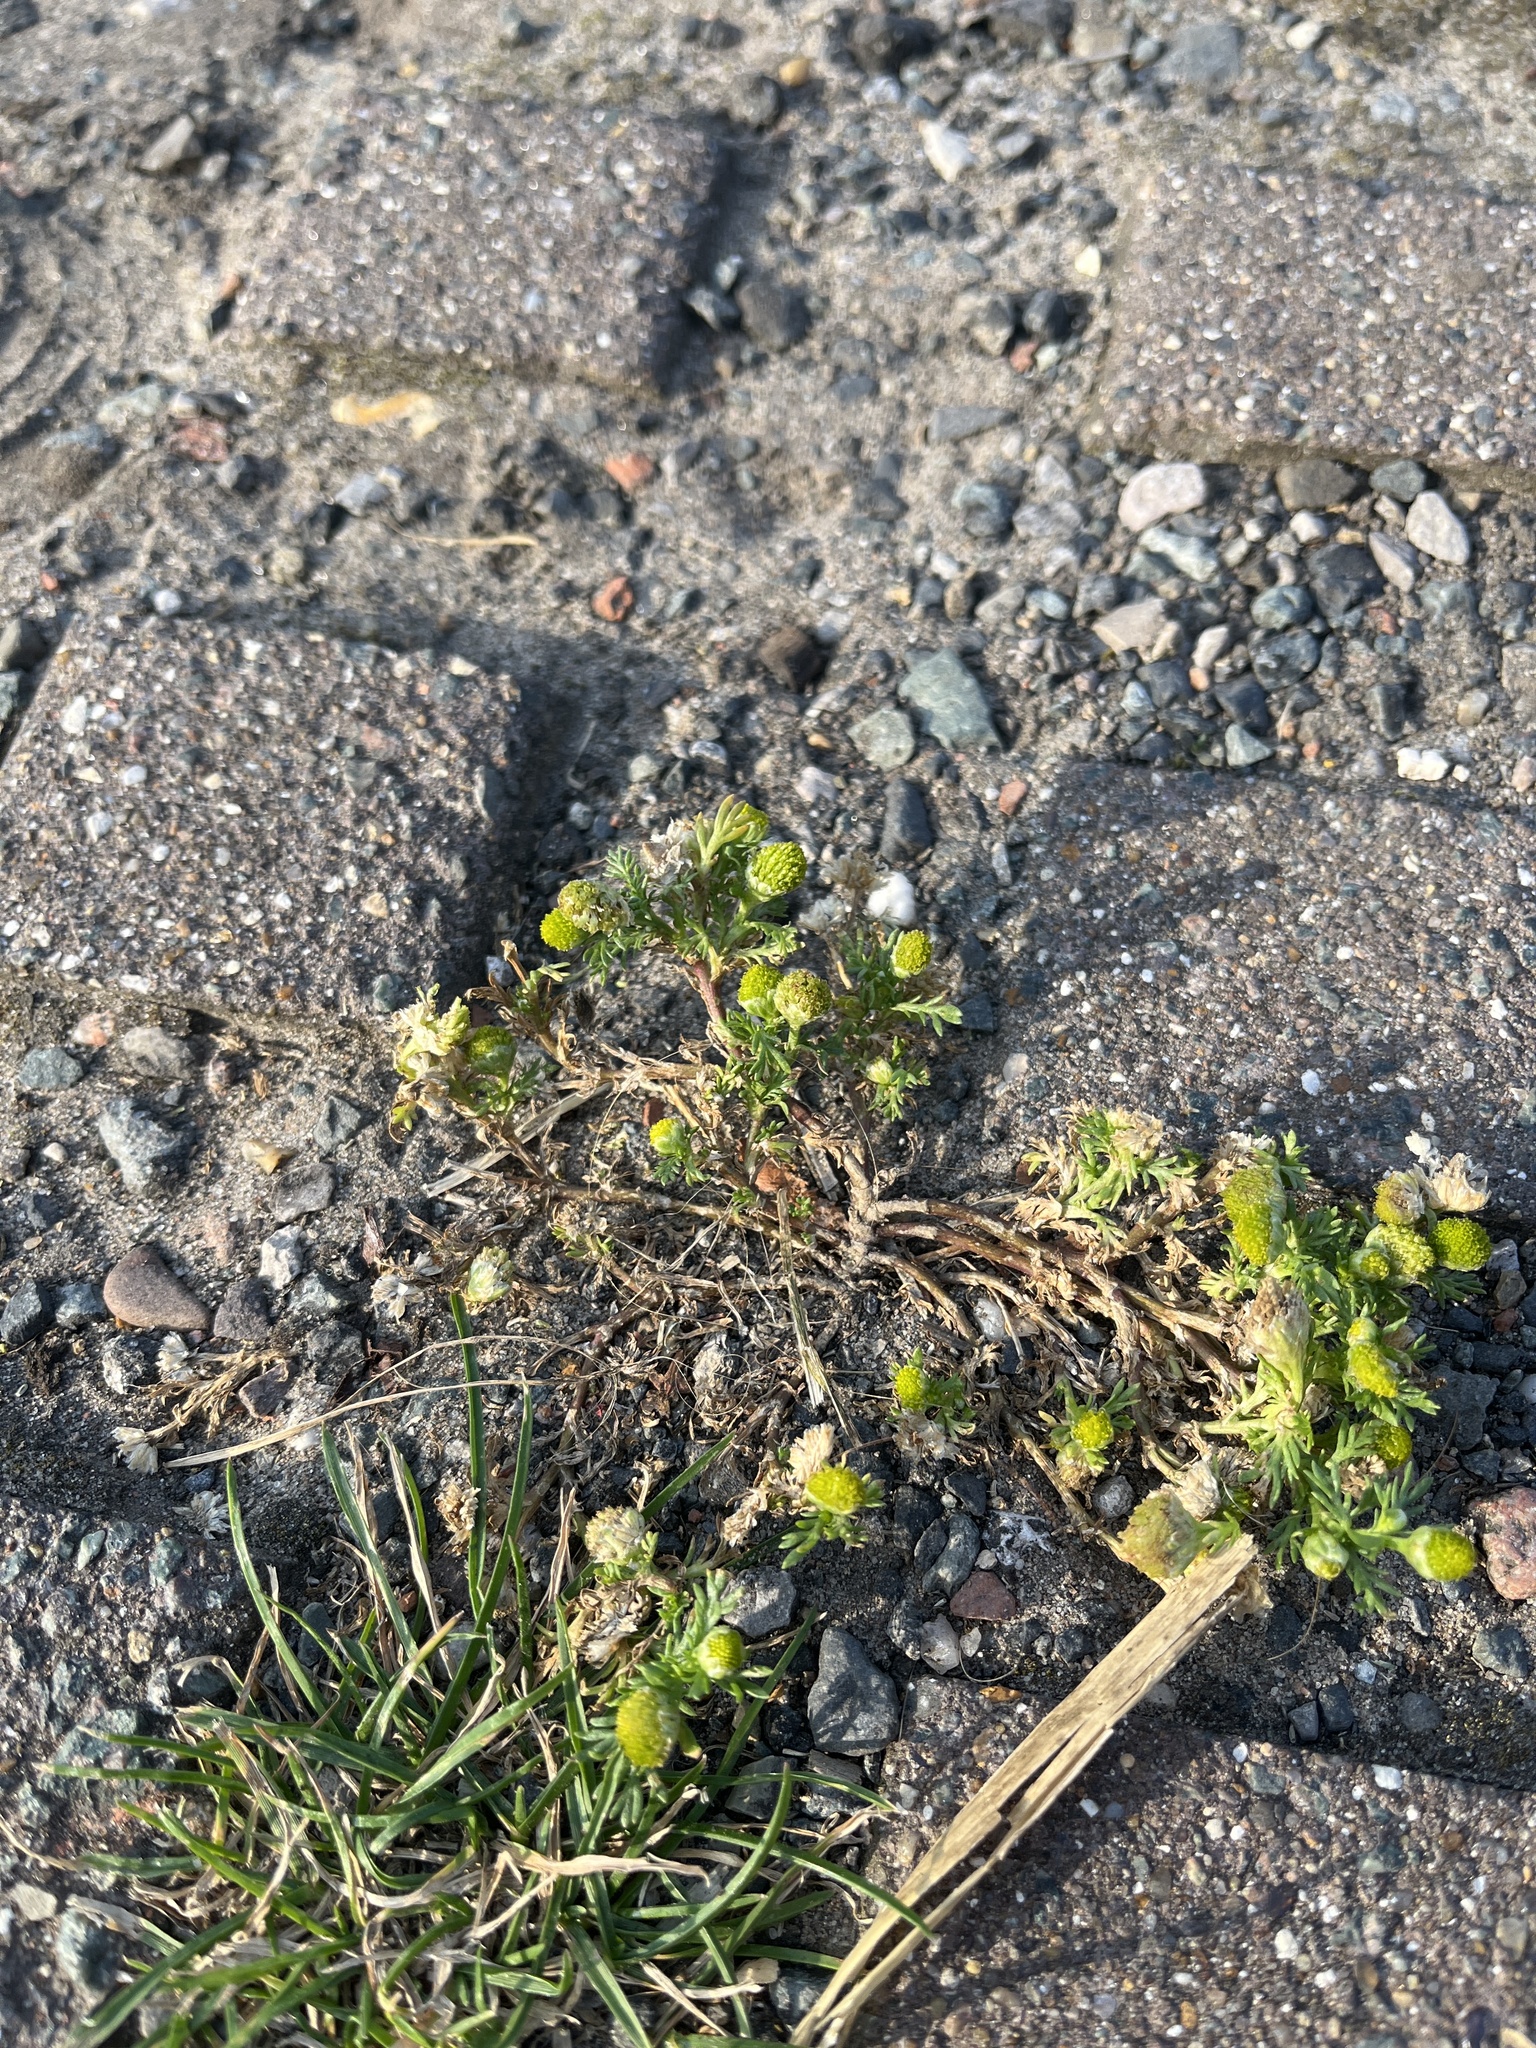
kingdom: Plantae
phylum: Tracheophyta
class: Magnoliopsida
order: Asterales
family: Asteraceae
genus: Matricaria
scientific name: Matricaria discoidea
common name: Disc mayweed
